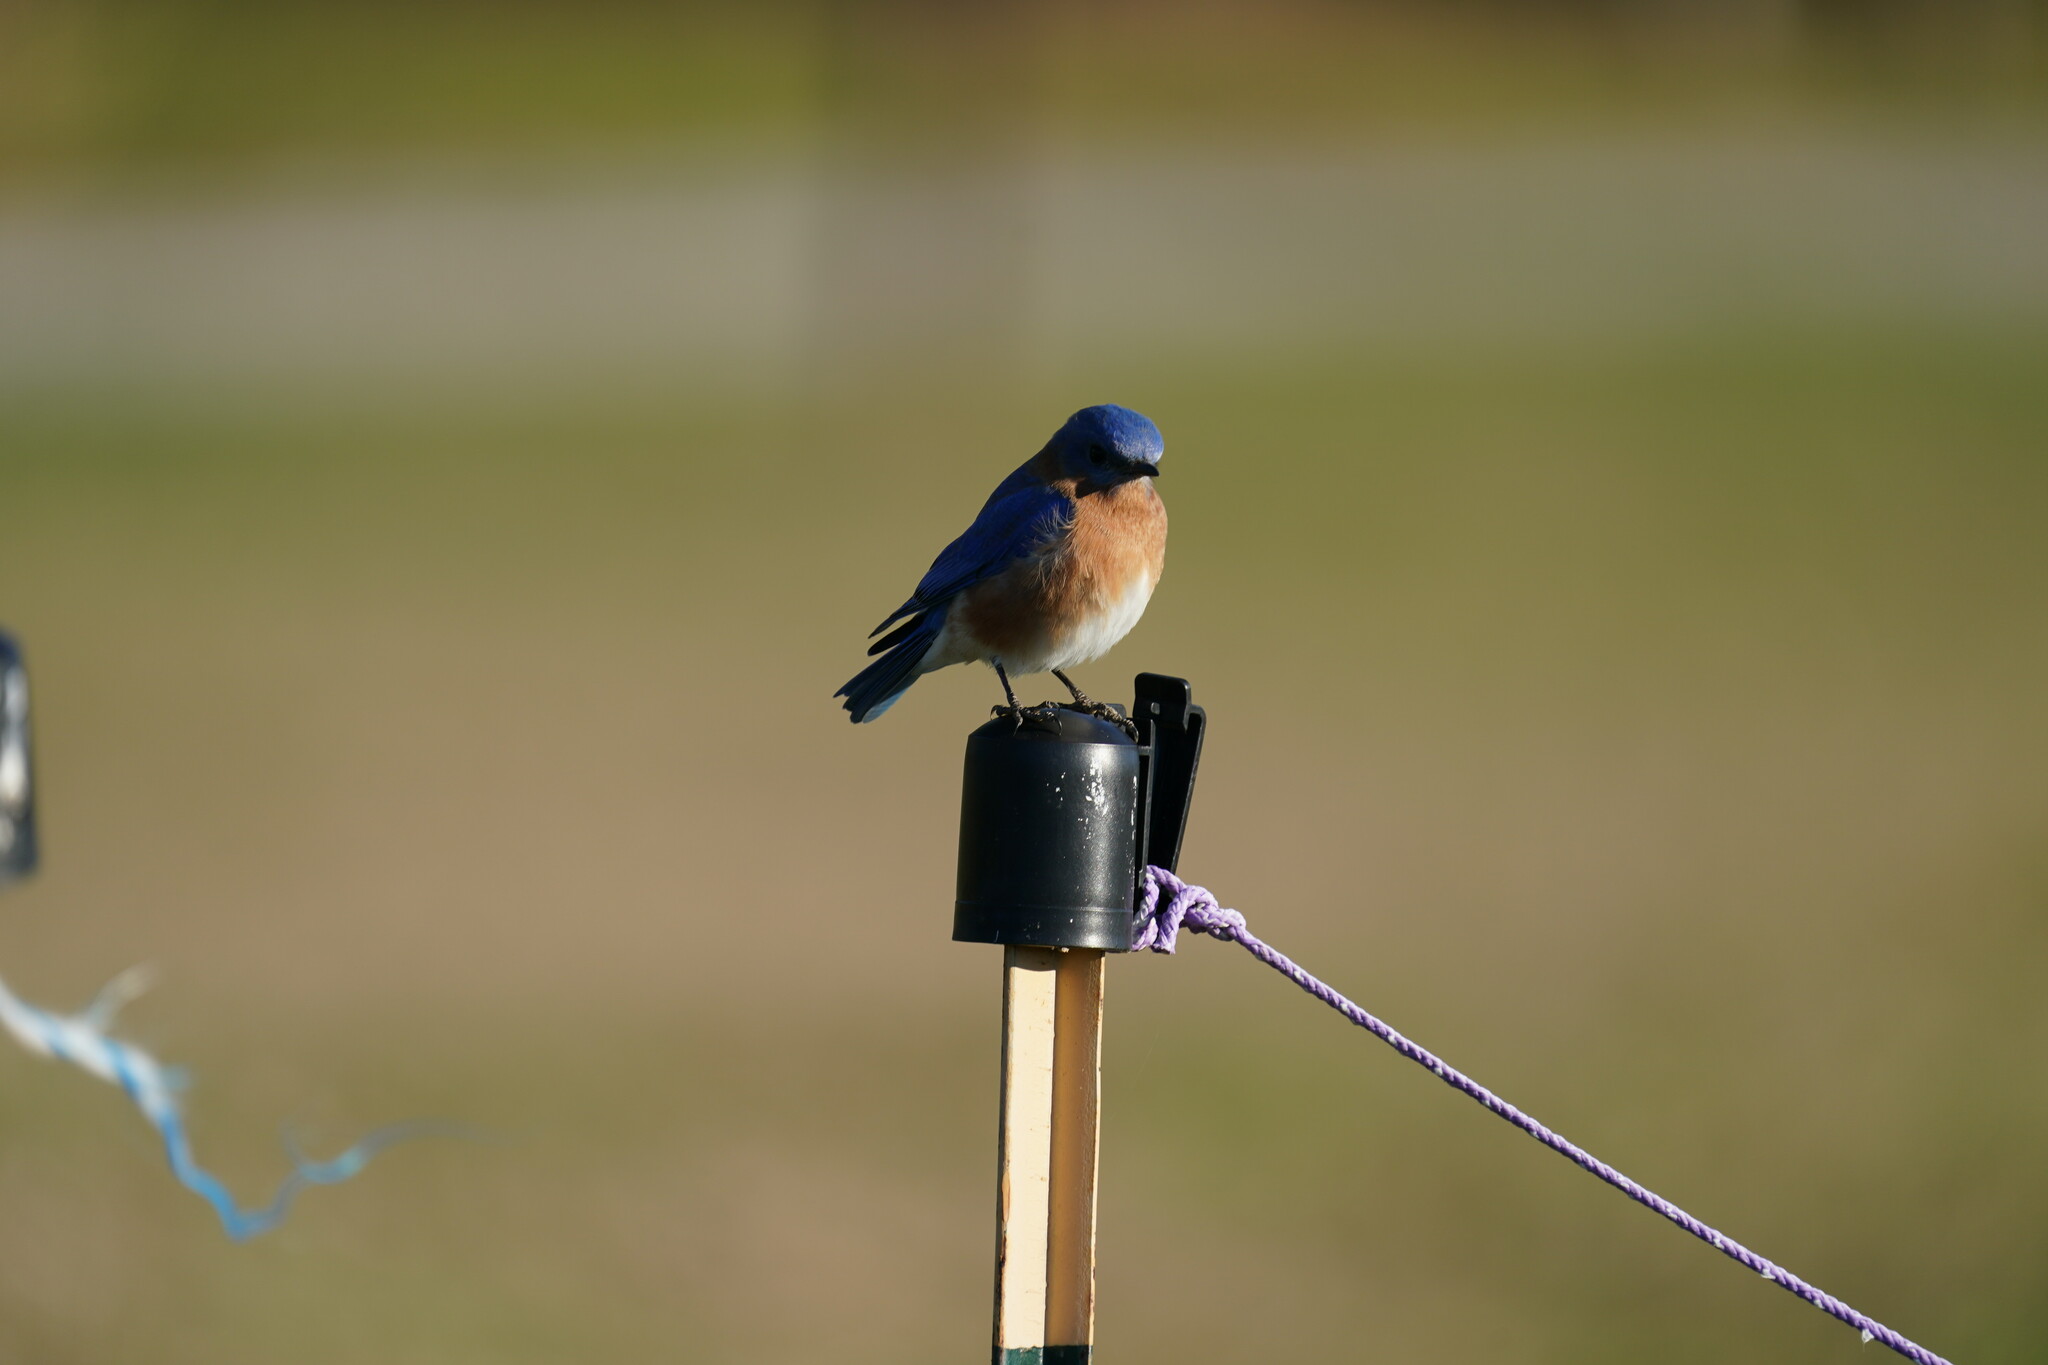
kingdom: Animalia
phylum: Chordata
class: Aves
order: Passeriformes
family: Turdidae
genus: Sialia
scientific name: Sialia sialis
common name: Eastern bluebird
